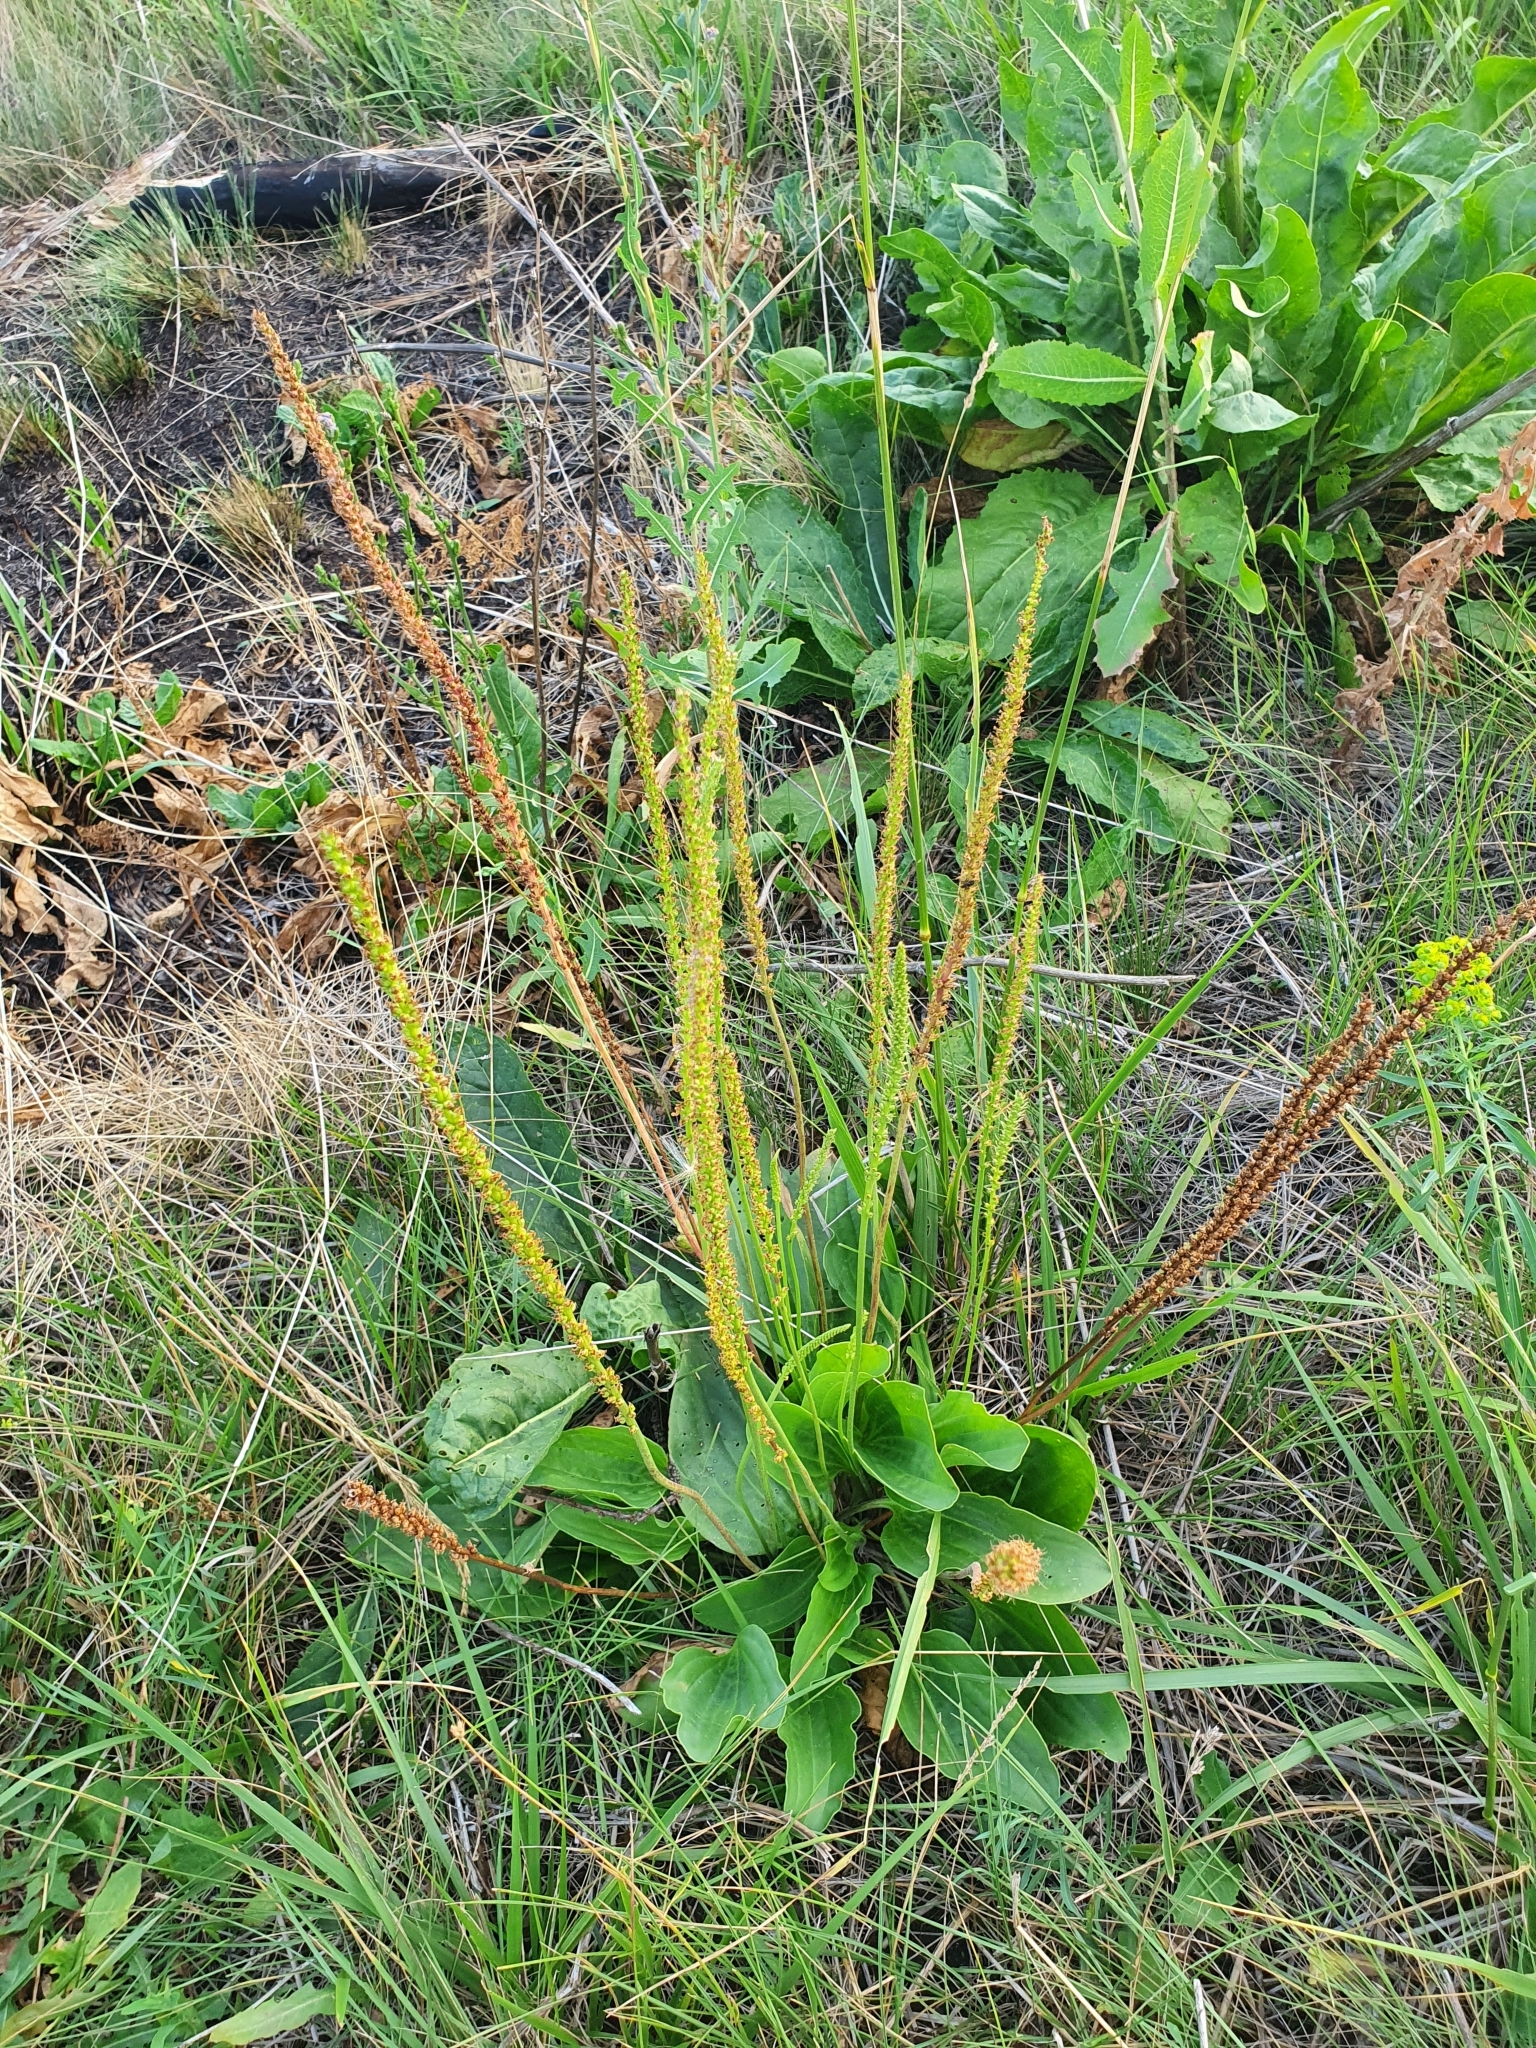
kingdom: Plantae
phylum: Tracheophyta
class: Magnoliopsida
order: Lamiales
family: Plantaginaceae
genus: Plantago
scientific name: Plantago cornuti
